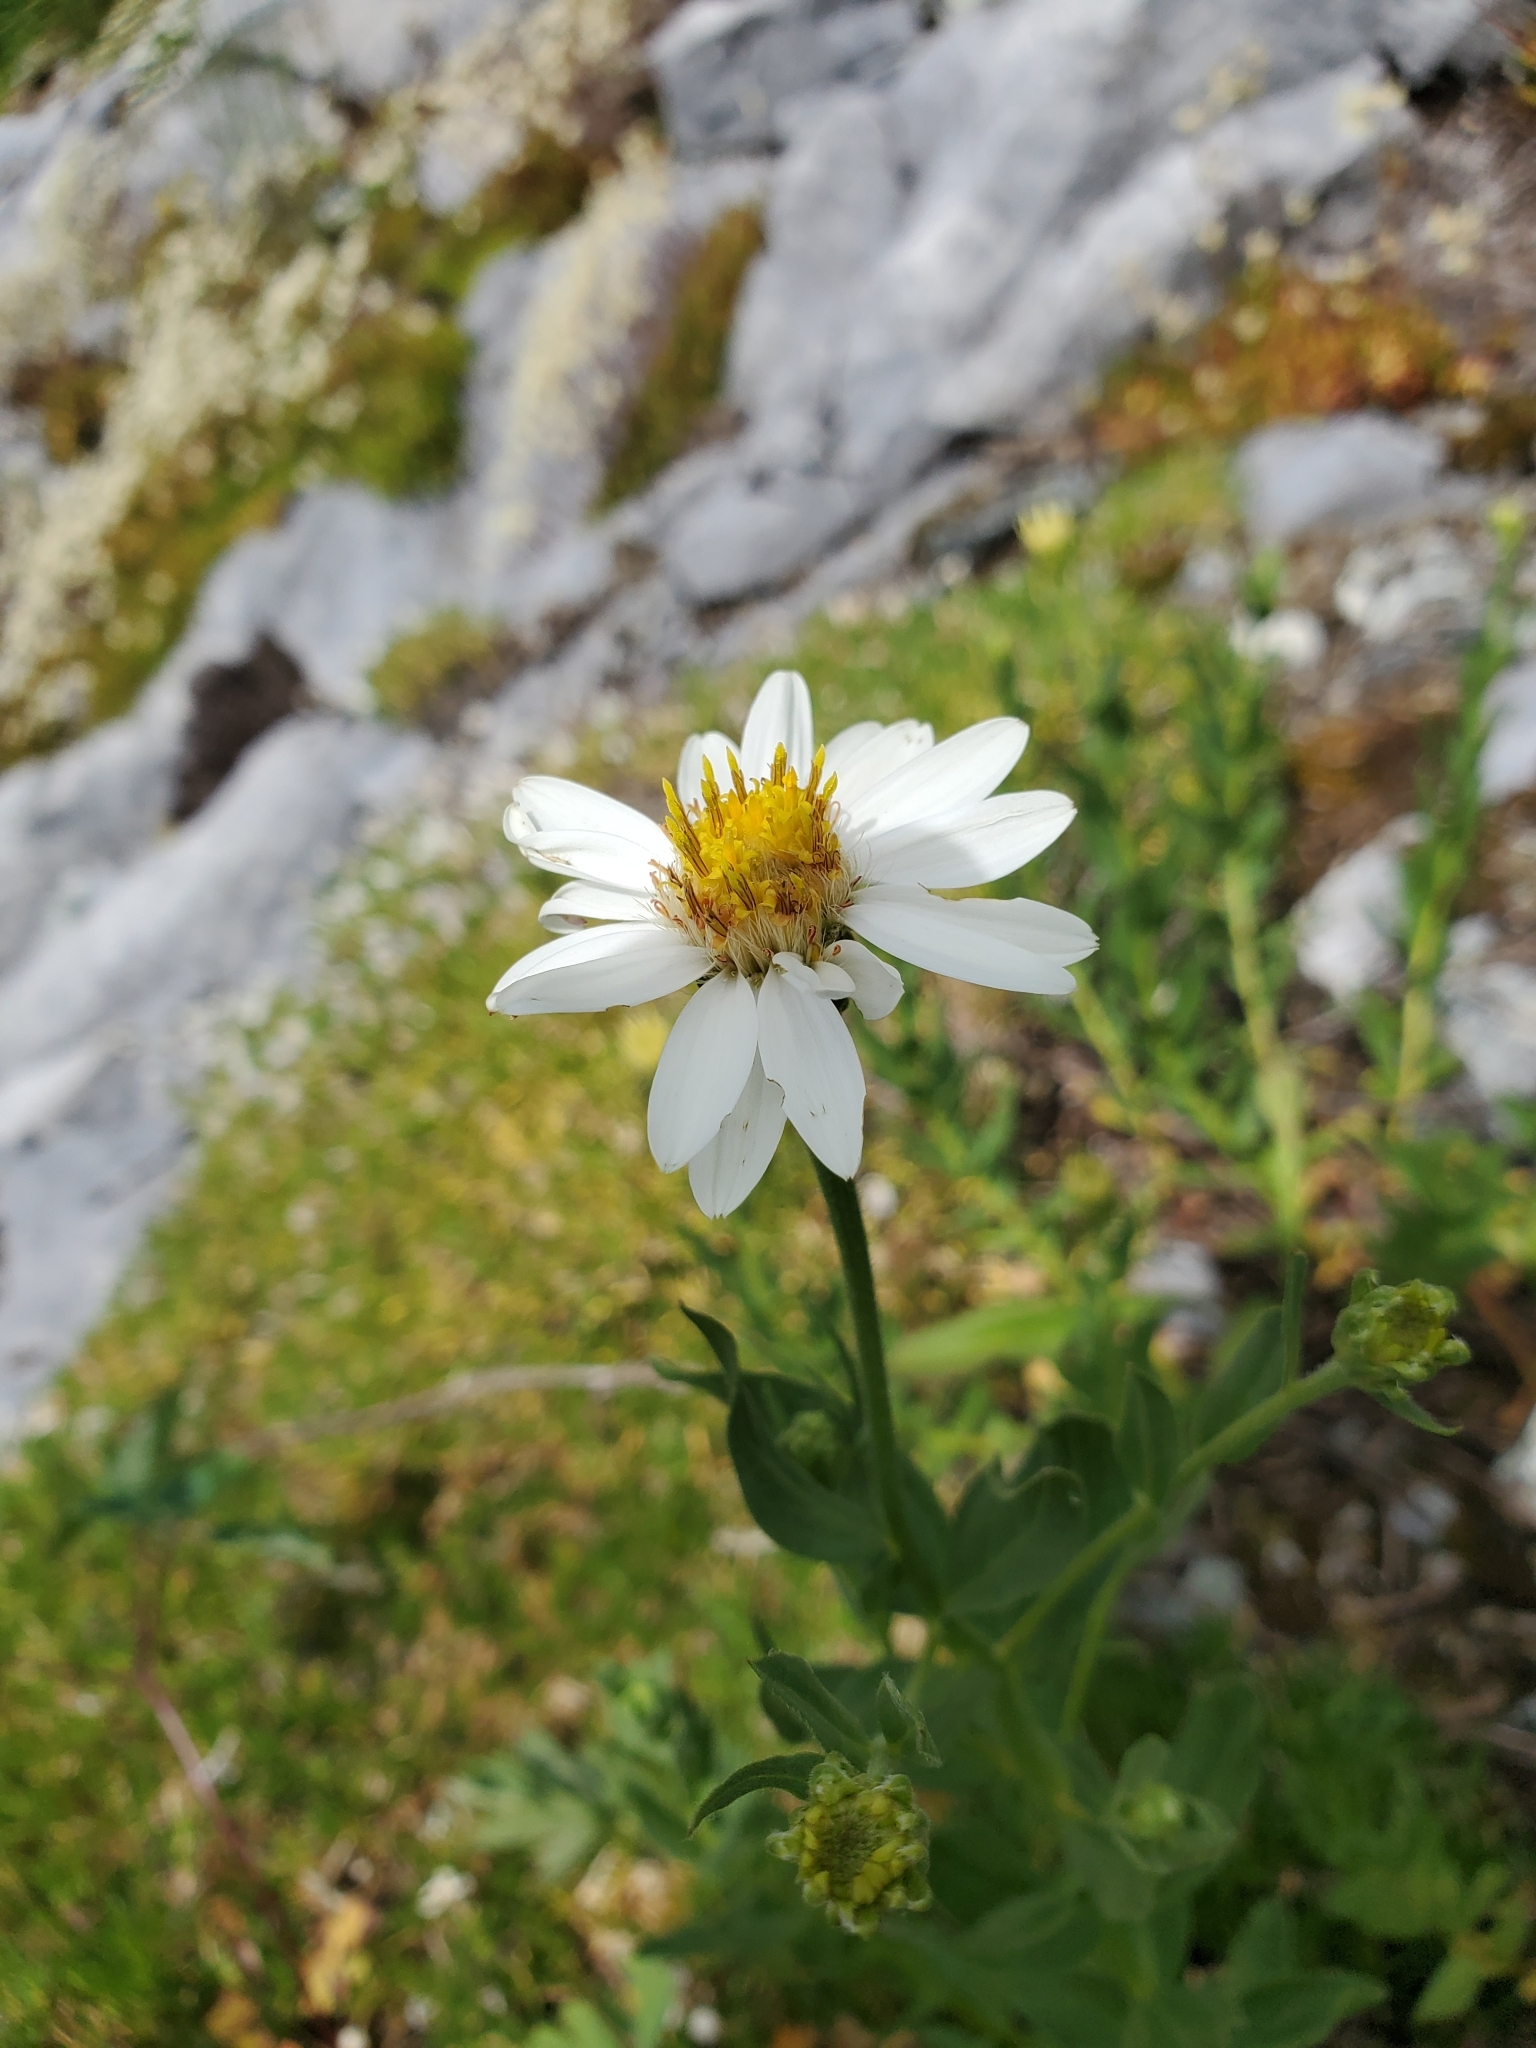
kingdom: Plantae
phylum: Tracheophyta
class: Magnoliopsida
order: Asterales
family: Asteraceae
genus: Eucephalus
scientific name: Eucephalus paucicapitatus
